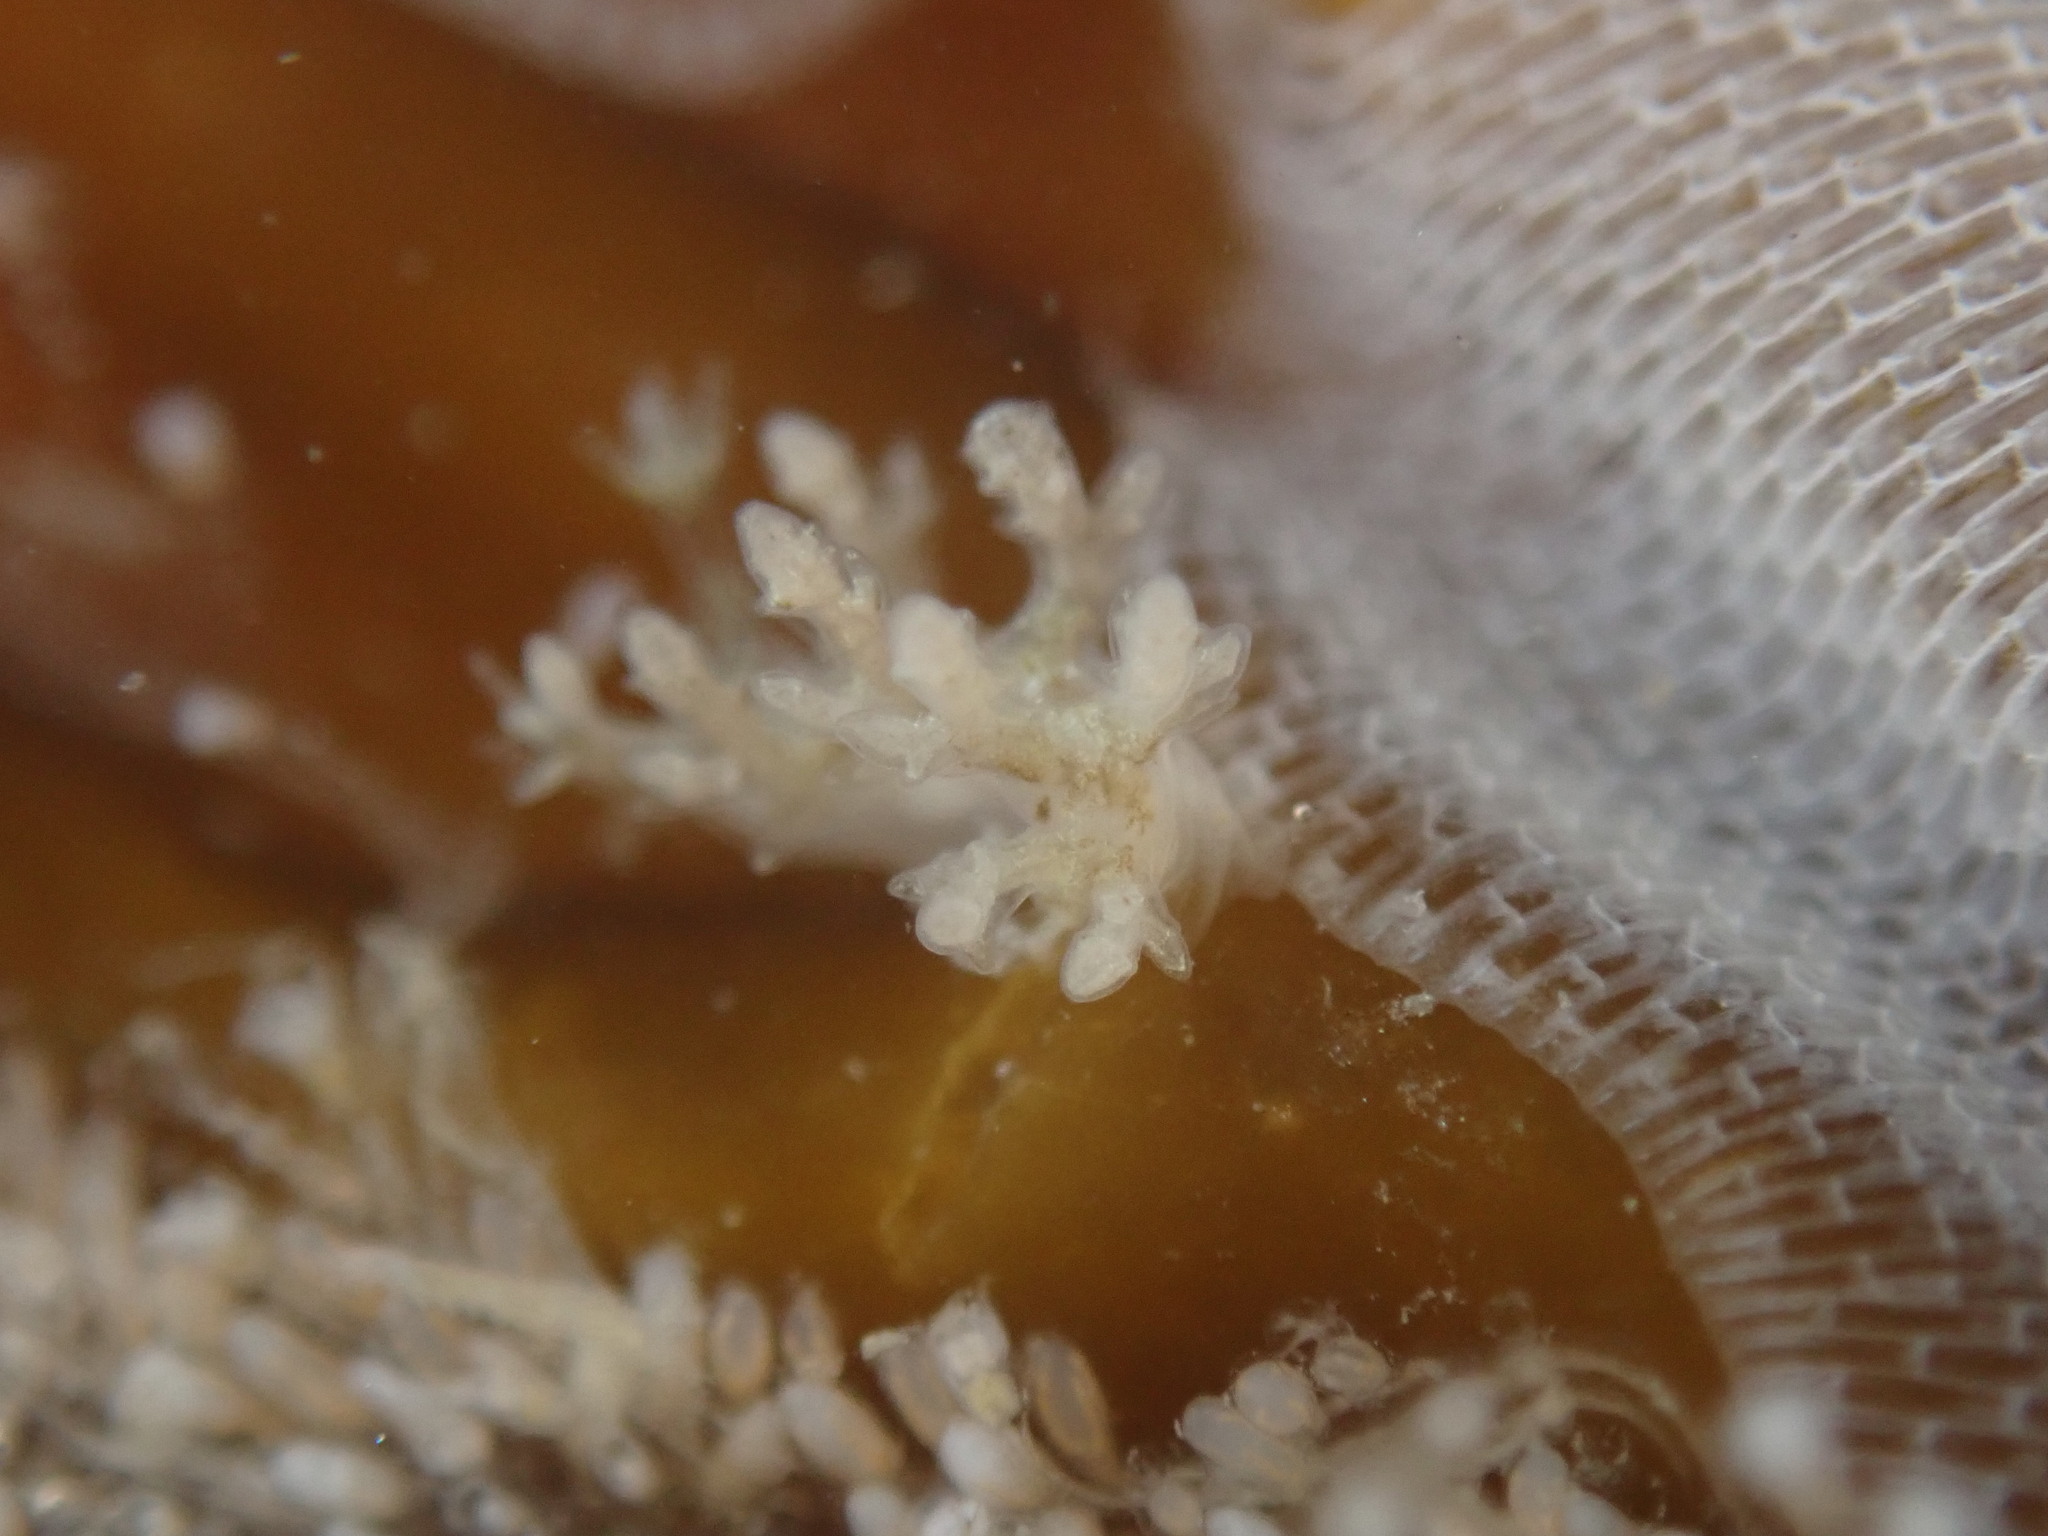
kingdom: Animalia
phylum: Mollusca
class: Gastropoda
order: Nudibranchia
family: Dendronotidae
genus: Dendronotus
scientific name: Dendronotus venustus
